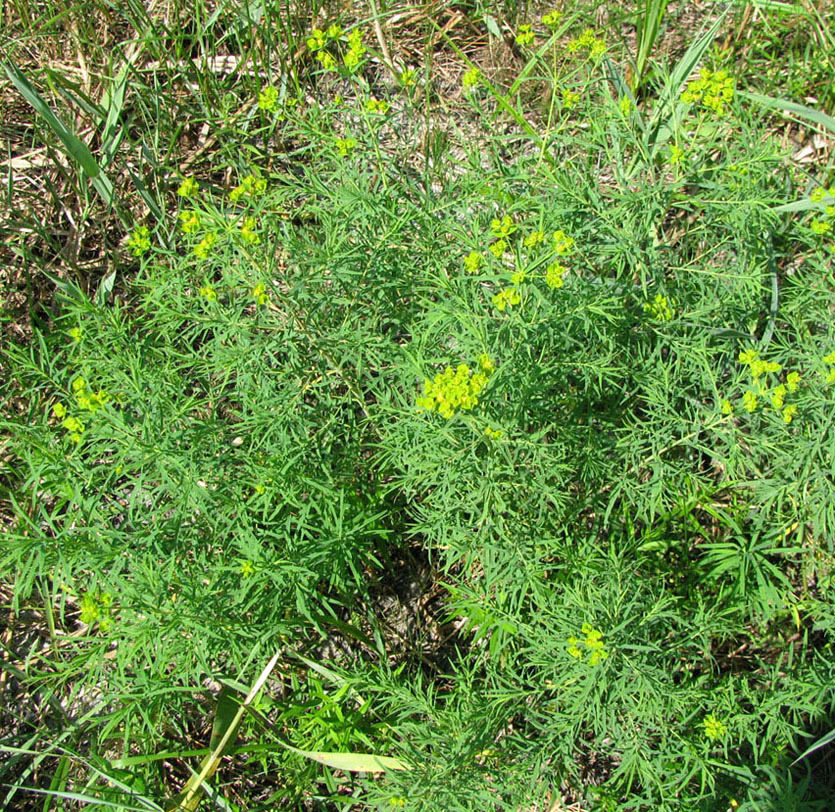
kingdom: Plantae
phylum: Tracheophyta
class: Magnoliopsida
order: Malpighiales
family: Euphorbiaceae
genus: Euphorbia
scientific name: Euphorbia virgata
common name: Leafy spurge
